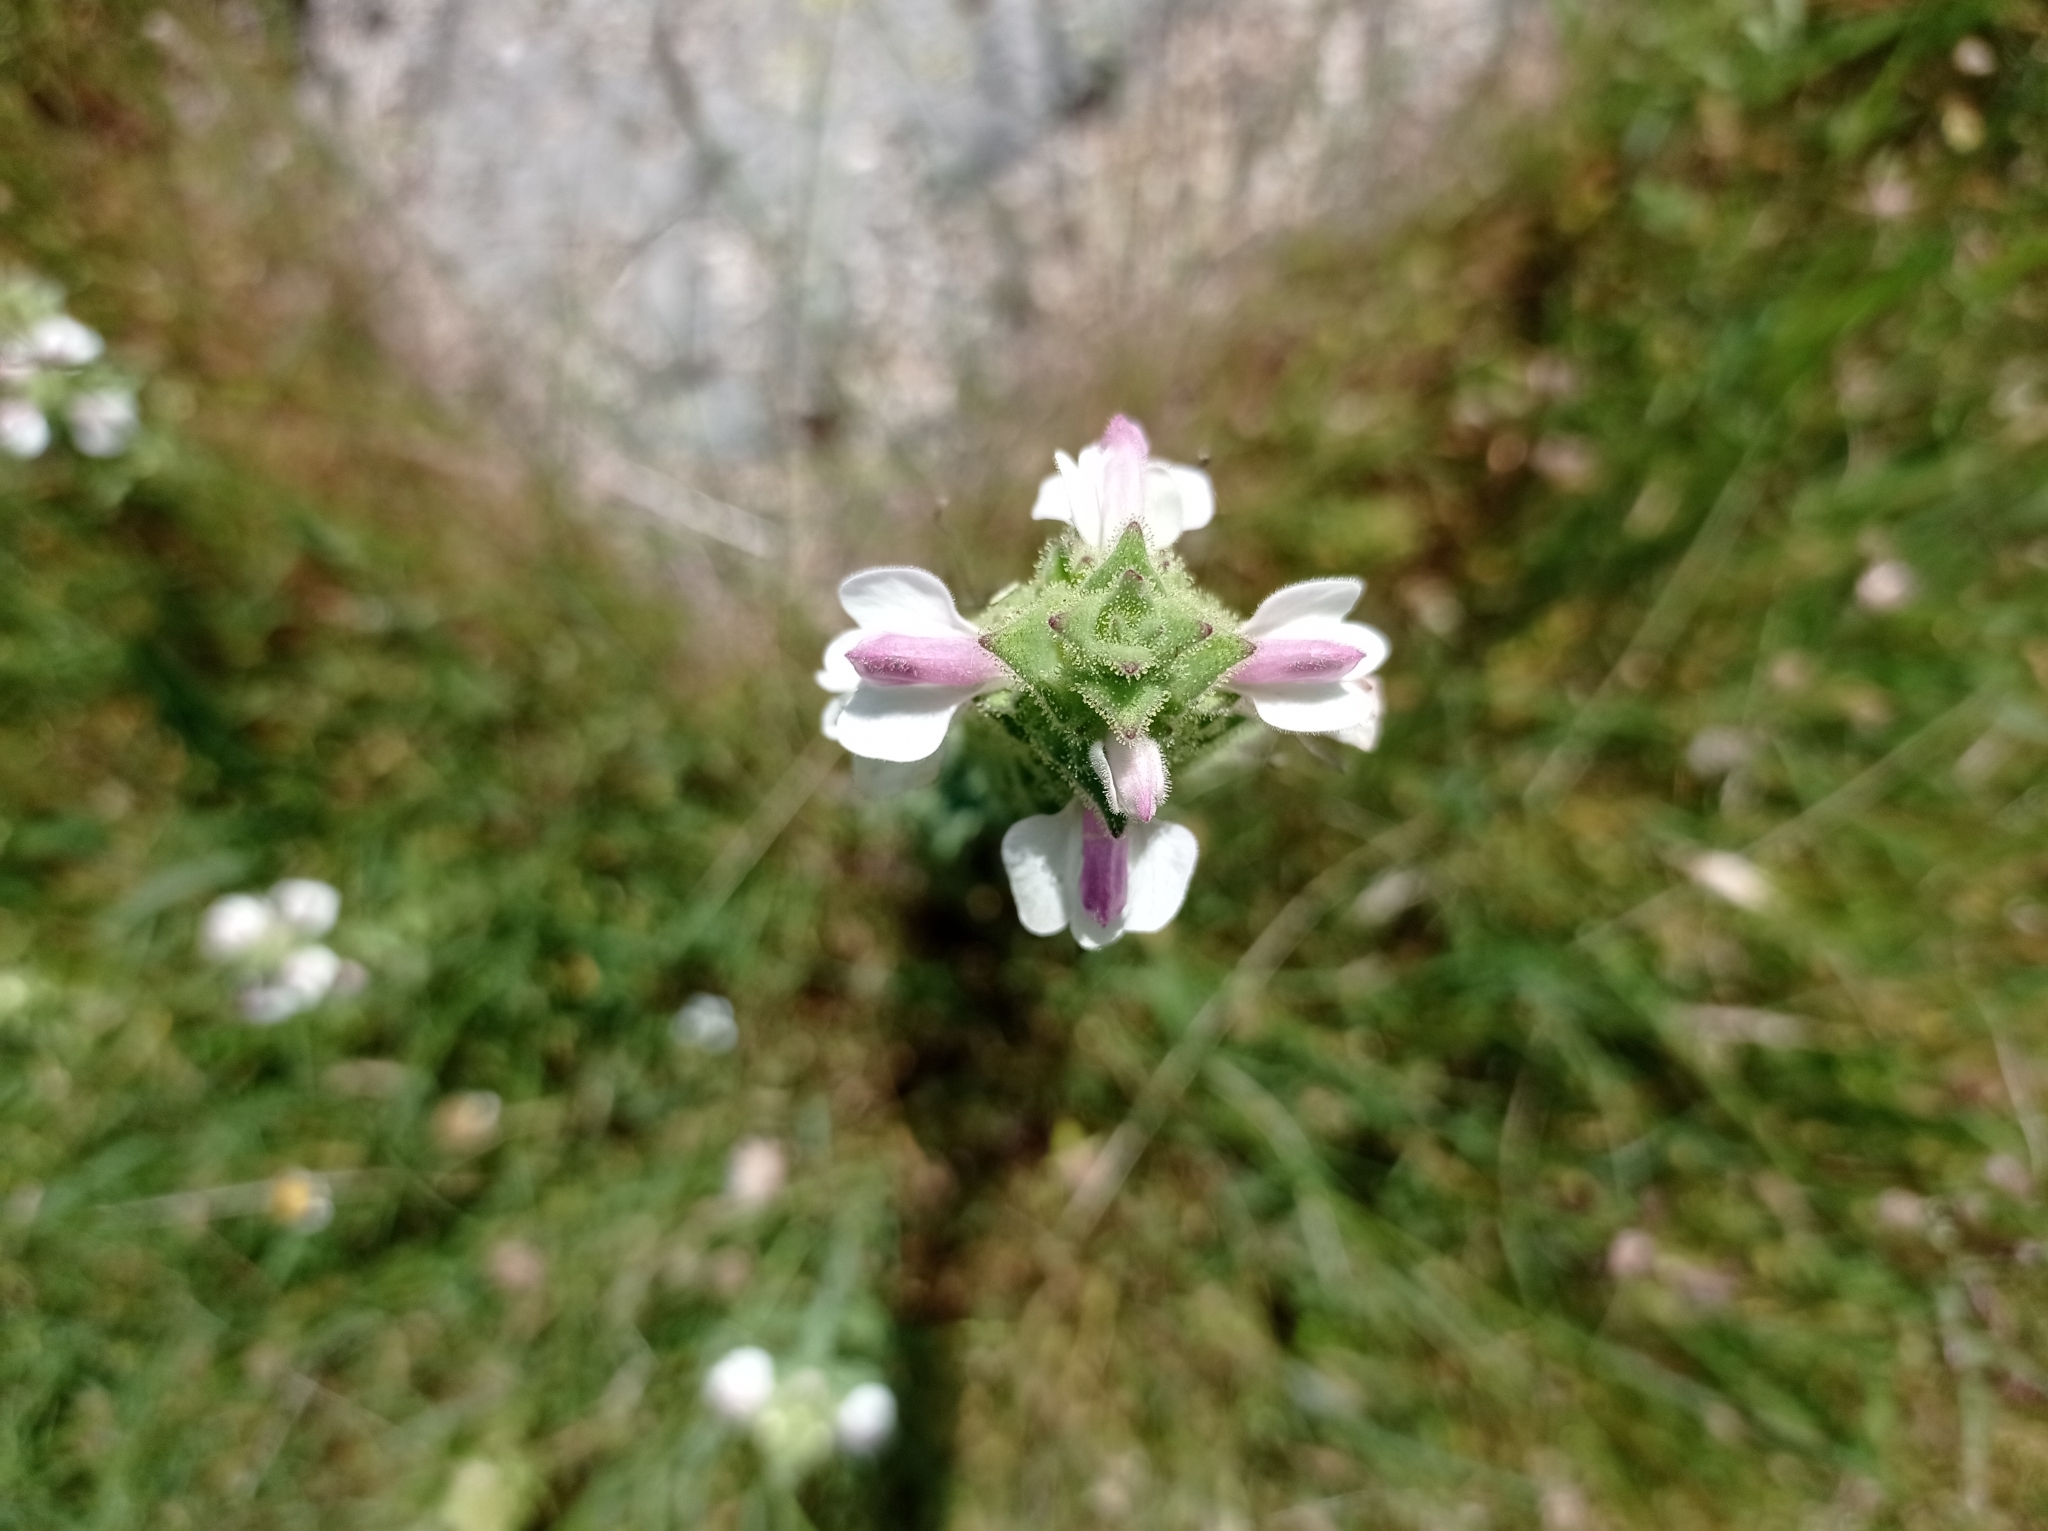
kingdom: Plantae
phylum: Tracheophyta
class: Magnoliopsida
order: Lamiales
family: Orobanchaceae
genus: Bellardia
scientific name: Bellardia trixago
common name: Mediterranean lineseed
